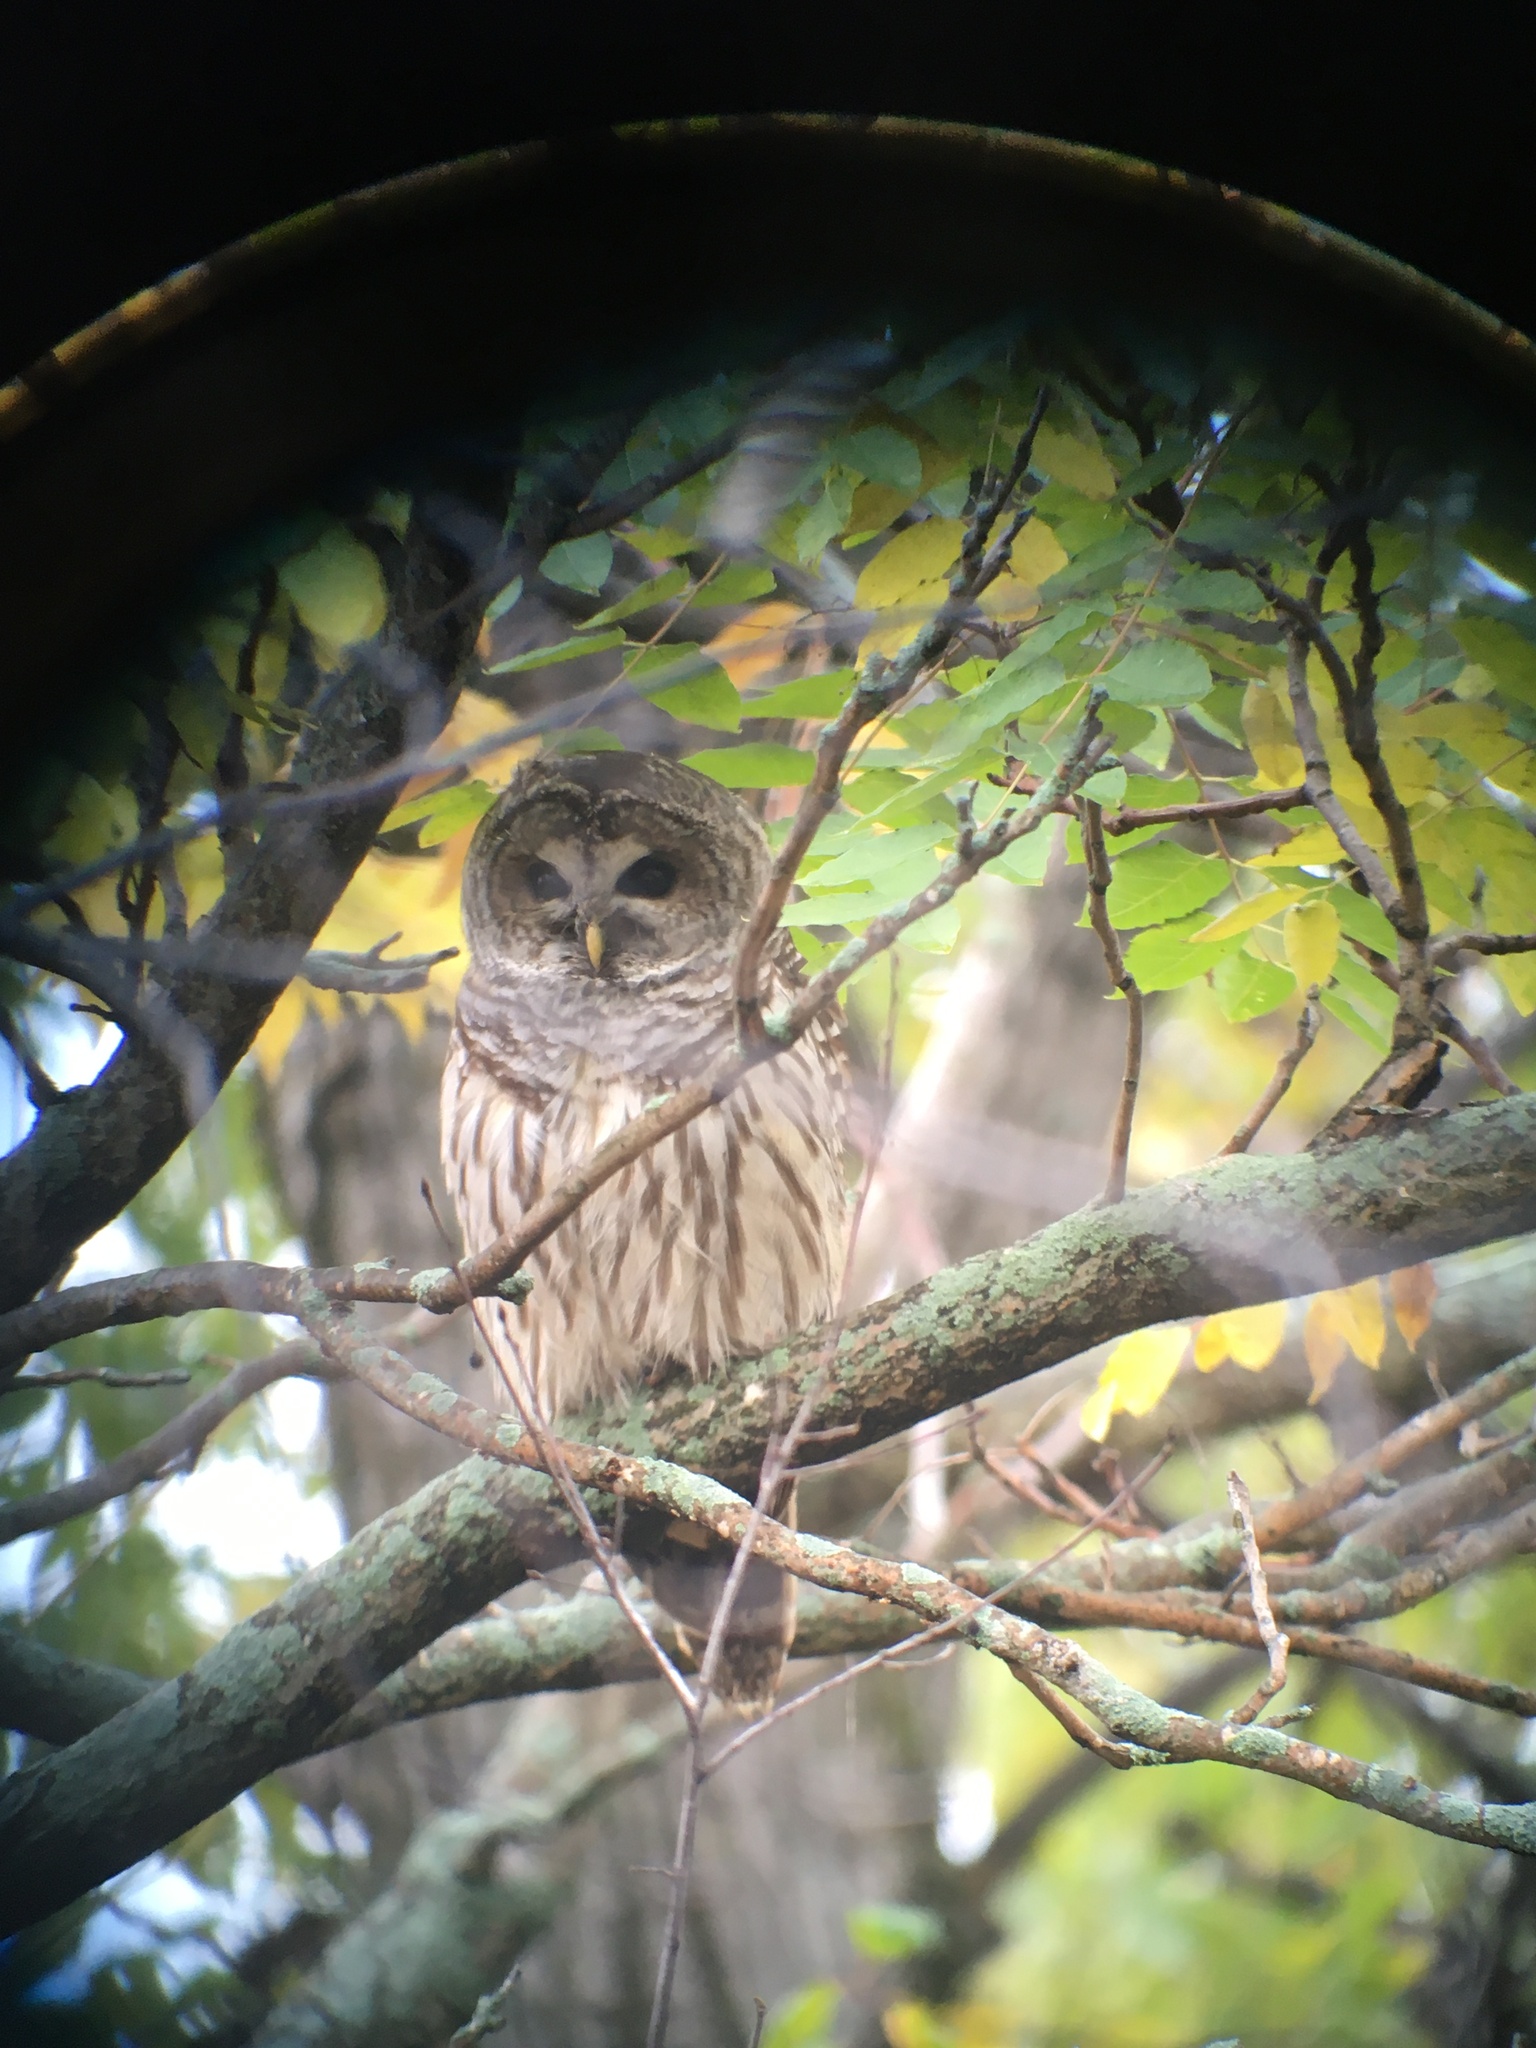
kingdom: Animalia
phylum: Chordata
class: Aves
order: Strigiformes
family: Strigidae
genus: Strix
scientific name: Strix varia
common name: Barred owl
